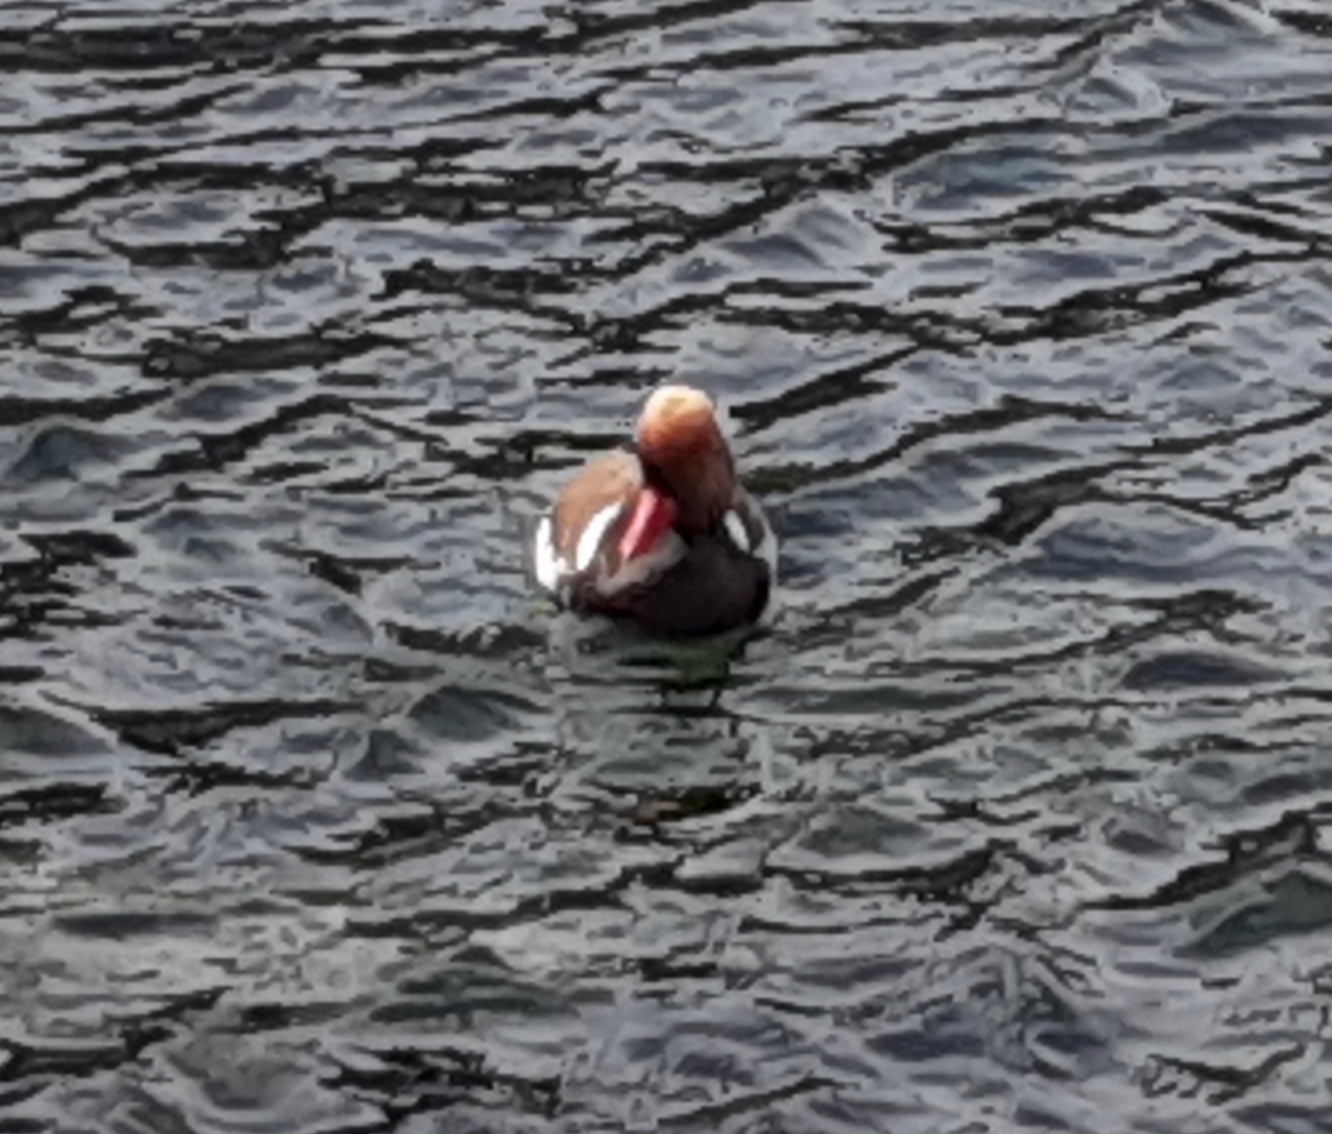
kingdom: Animalia
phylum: Chordata
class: Aves
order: Anseriformes
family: Anatidae
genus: Netta
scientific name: Netta rufina
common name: Red-crested pochard
